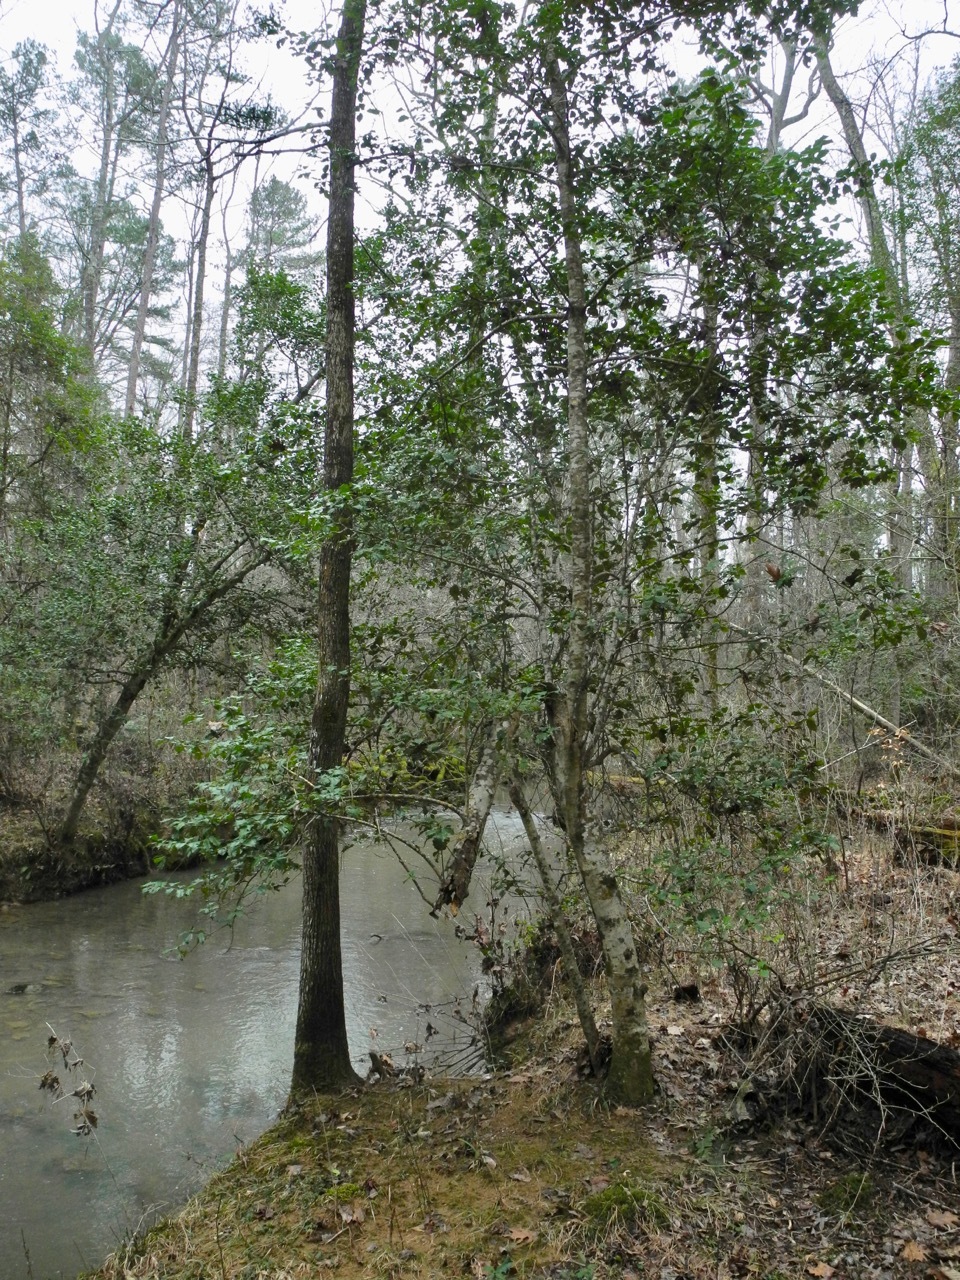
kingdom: Plantae
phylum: Tracheophyta
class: Magnoliopsida
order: Aquifoliales
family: Aquifoliaceae
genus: Ilex
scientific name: Ilex opaca
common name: American holly
